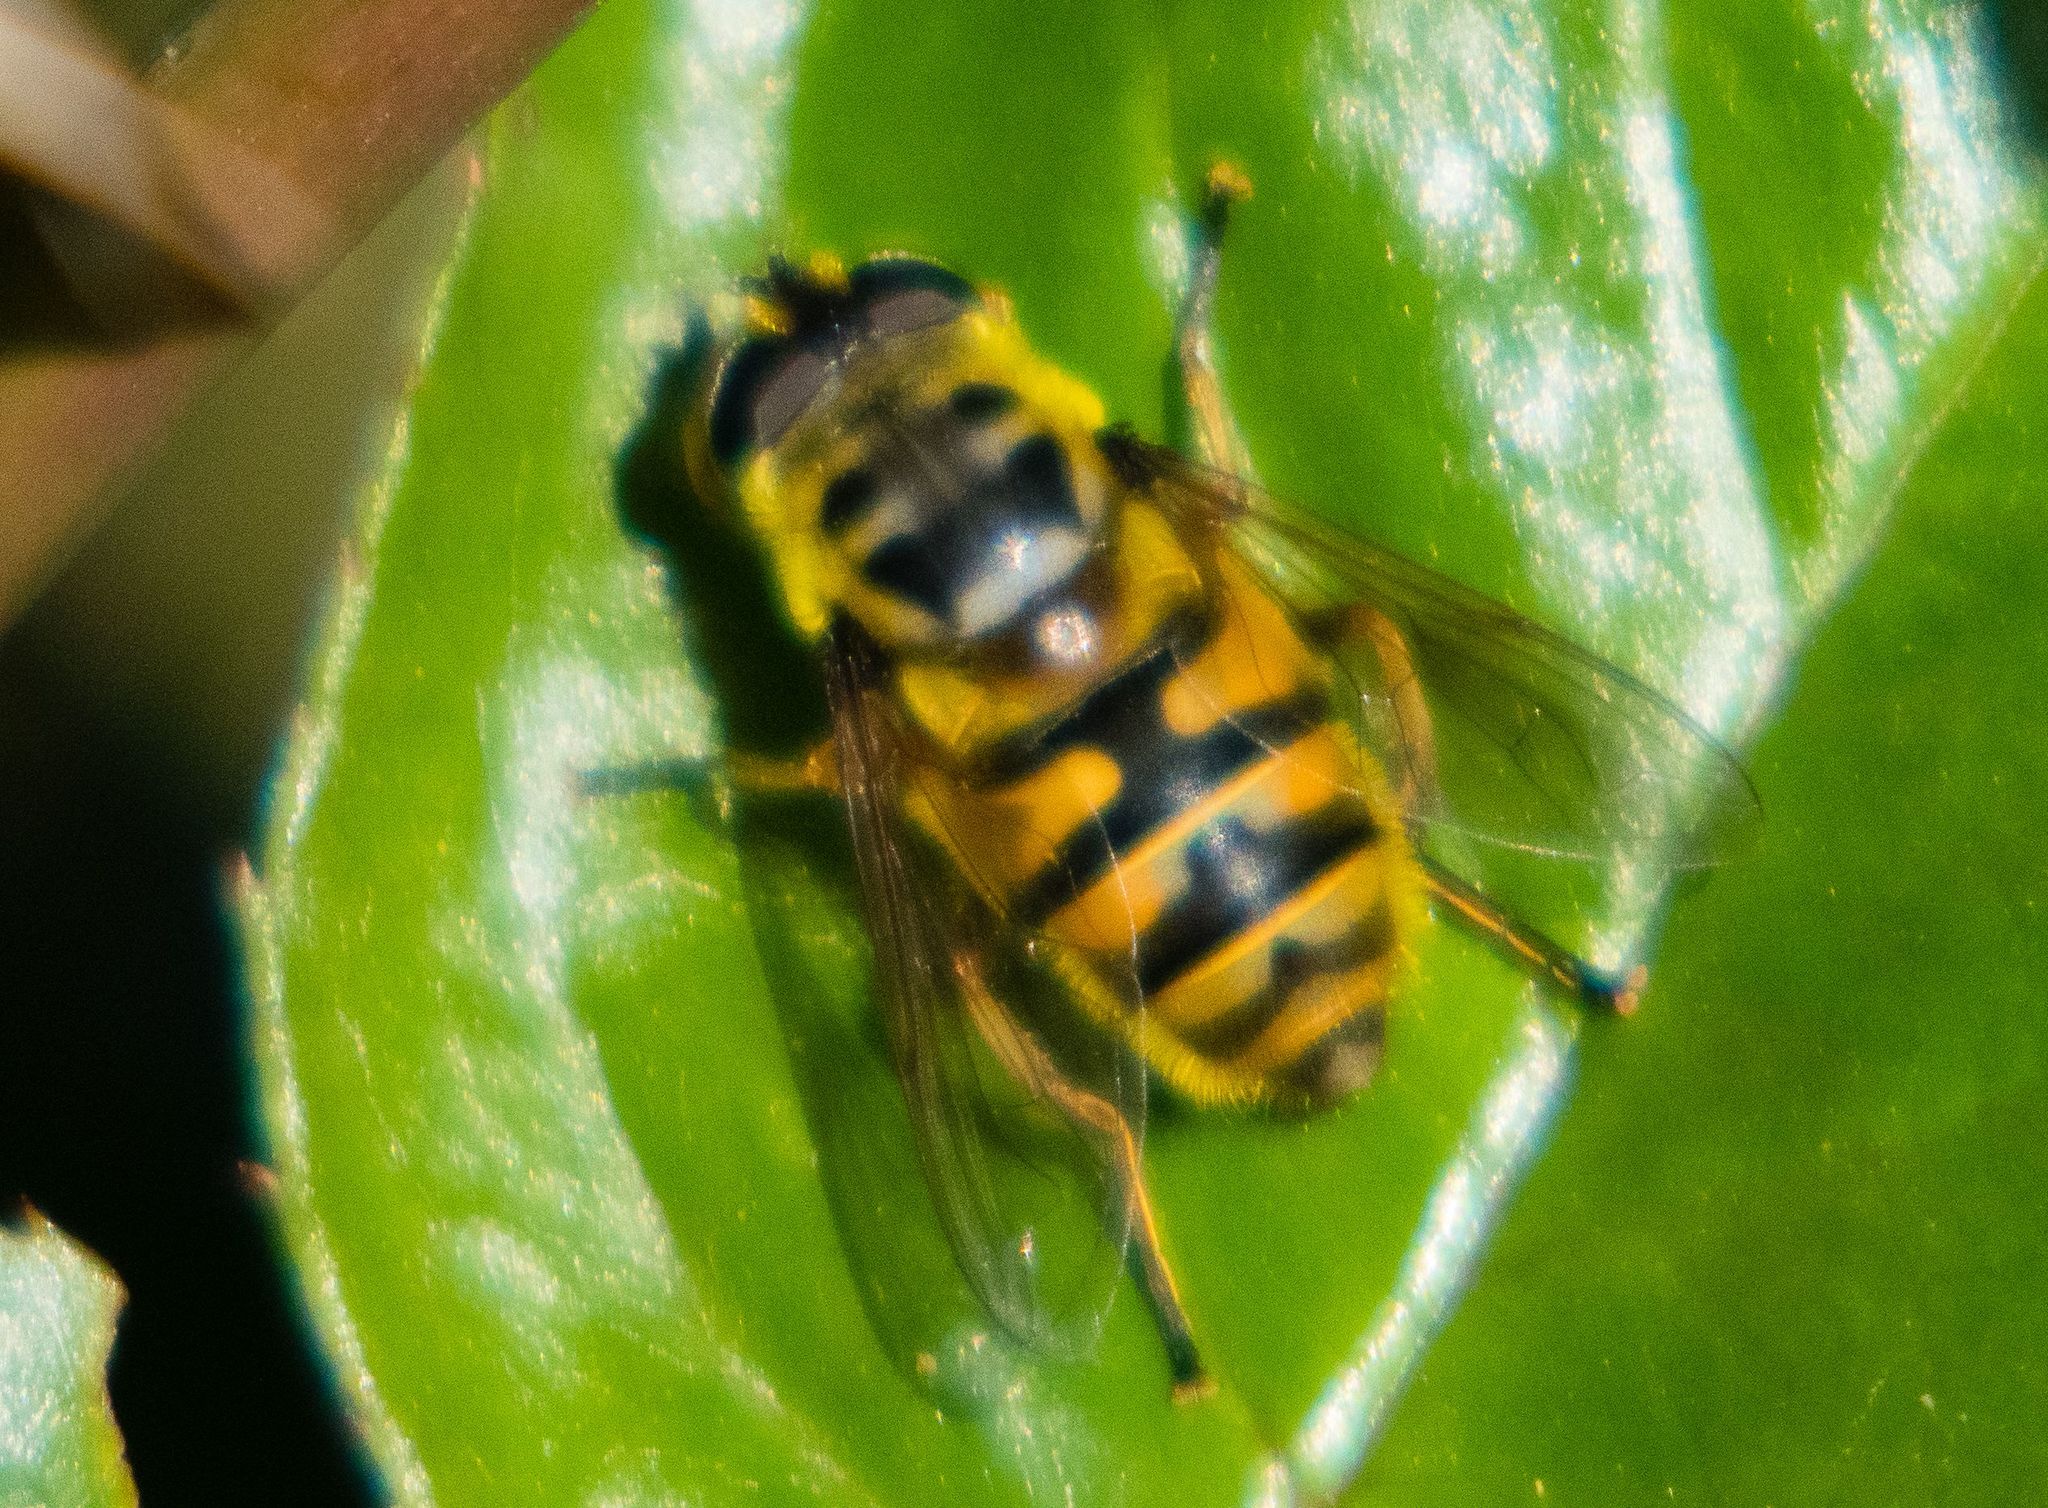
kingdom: Animalia
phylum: Arthropoda
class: Insecta
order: Diptera
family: Syrphidae
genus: Myathropa
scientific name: Myathropa florea
